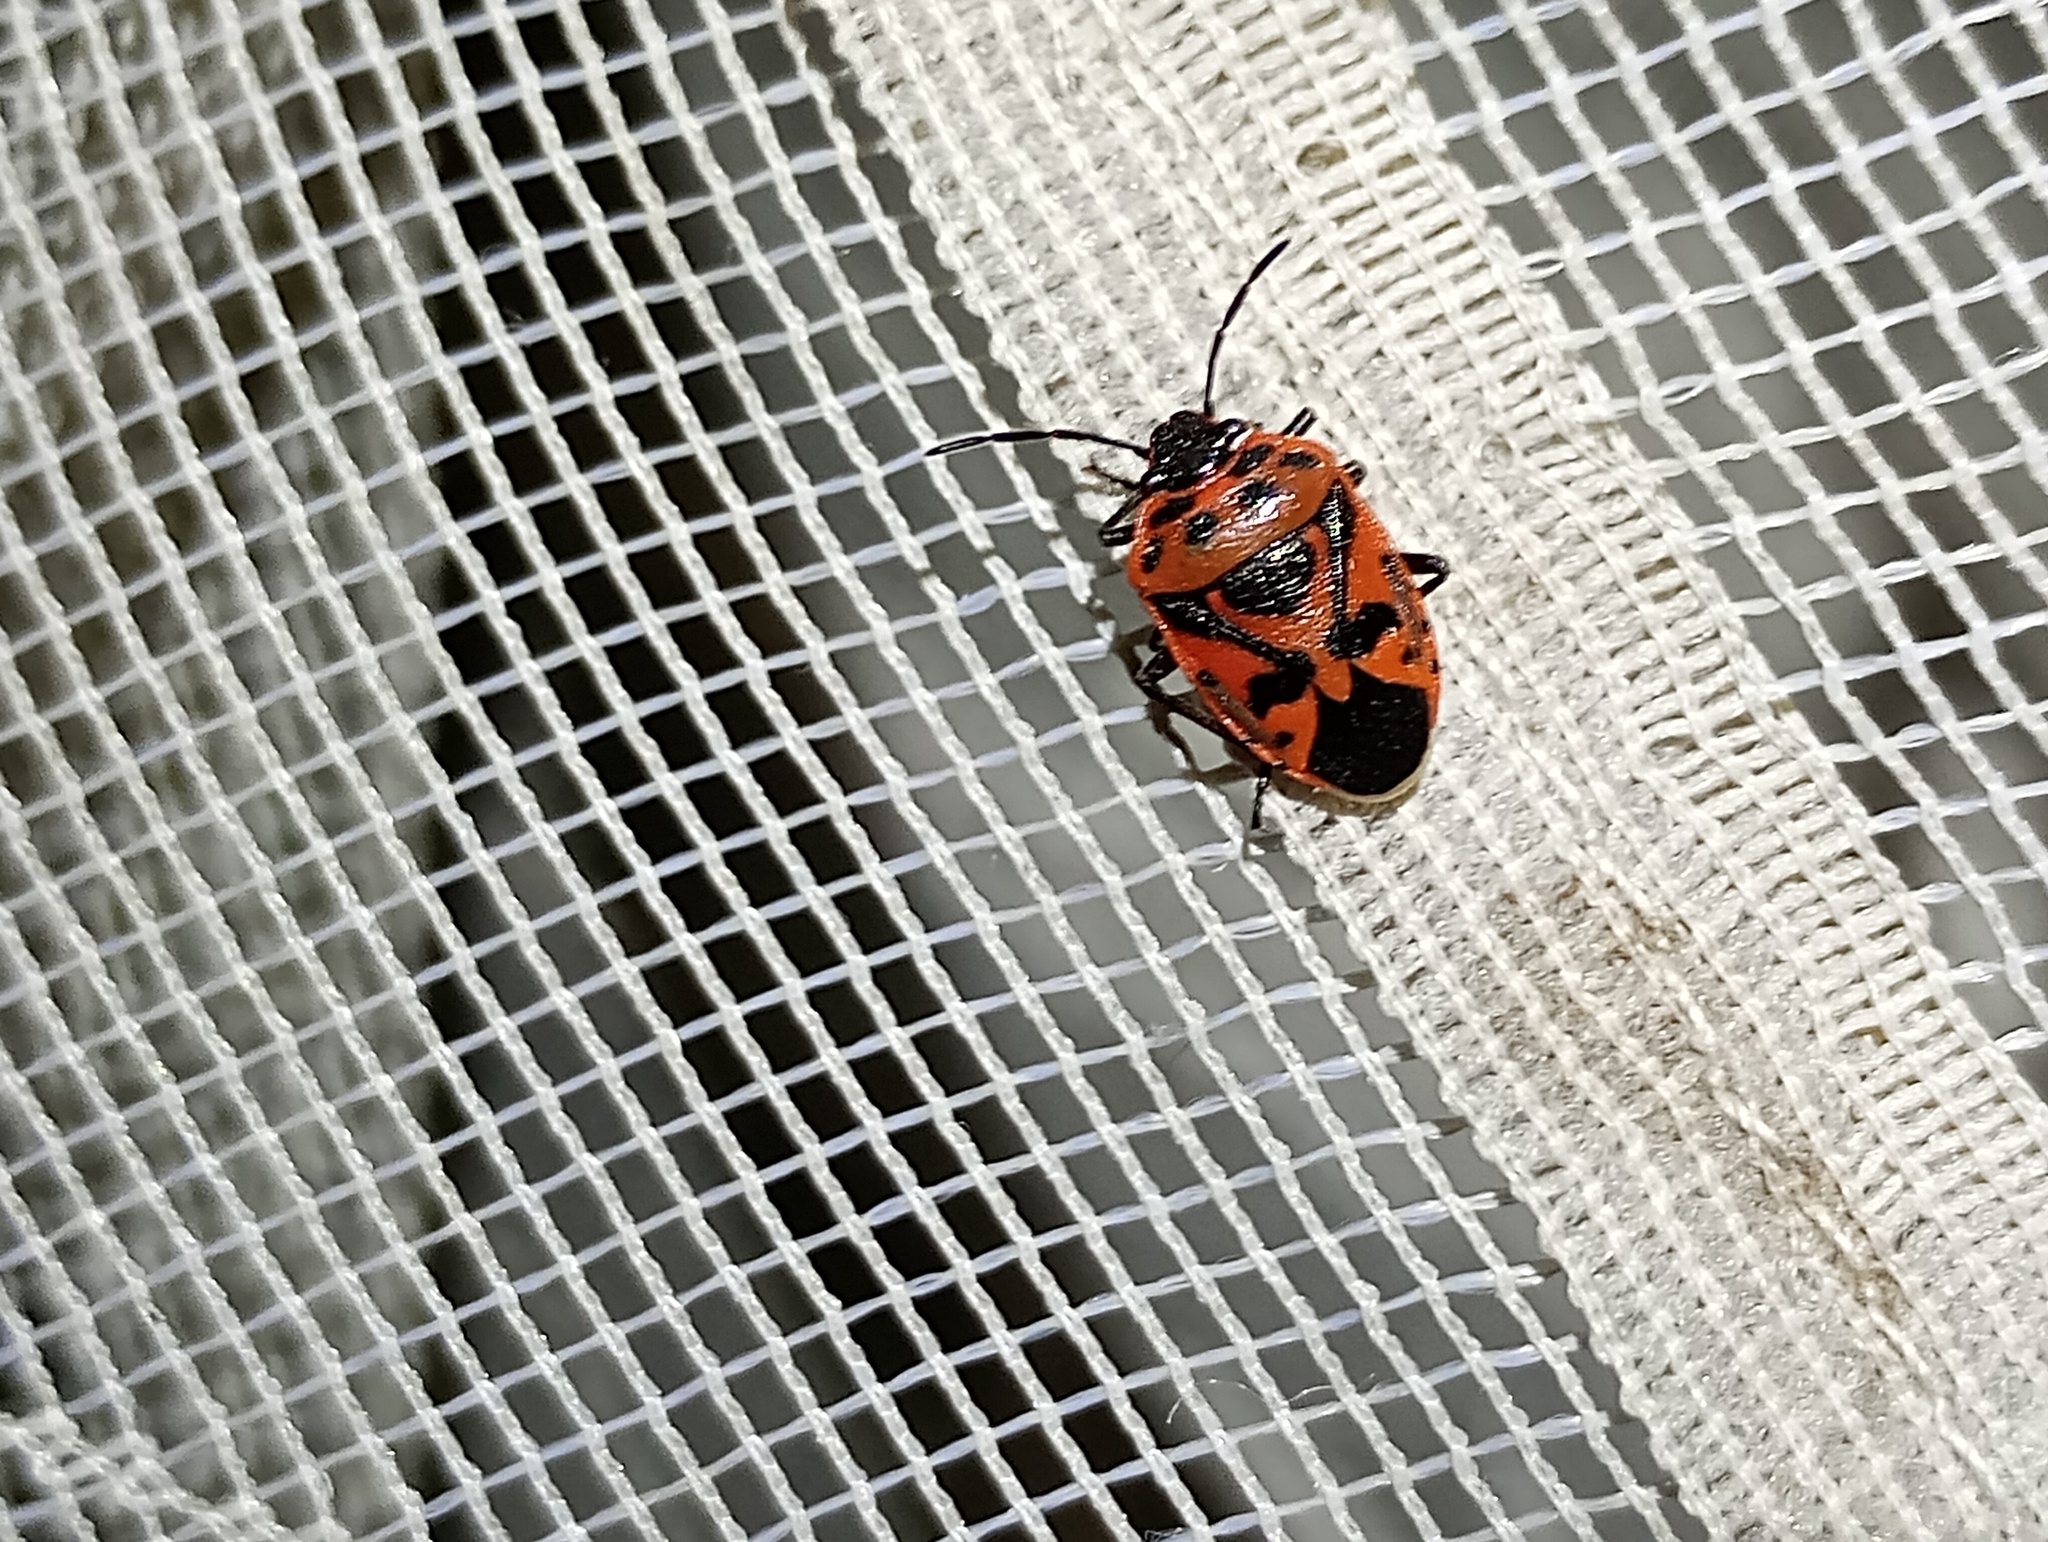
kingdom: Animalia
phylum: Arthropoda
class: Insecta
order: Hemiptera
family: Pentatomidae
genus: Eurydema
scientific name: Eurydema ornata
